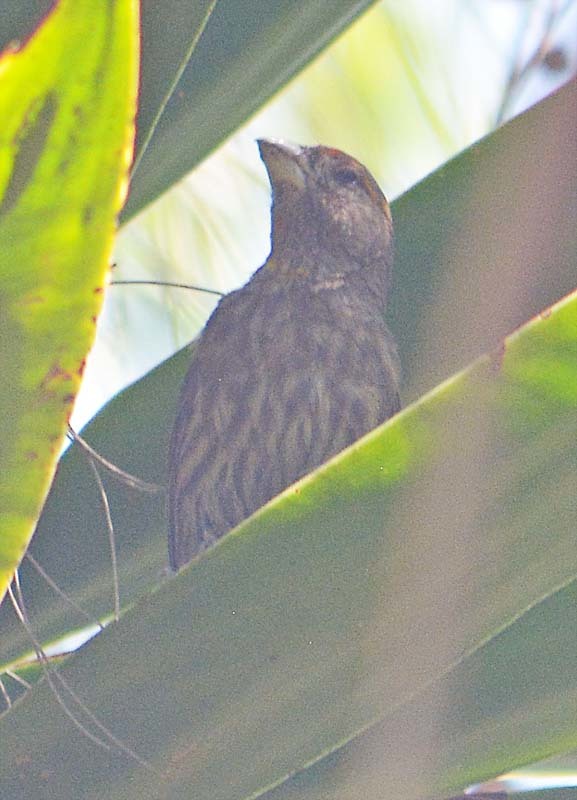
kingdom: Animalia
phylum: Chordata
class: Aves
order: Passeriformes
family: Fringillidae
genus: Haemorhous
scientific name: Haemorhous mexicanus
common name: House finch
